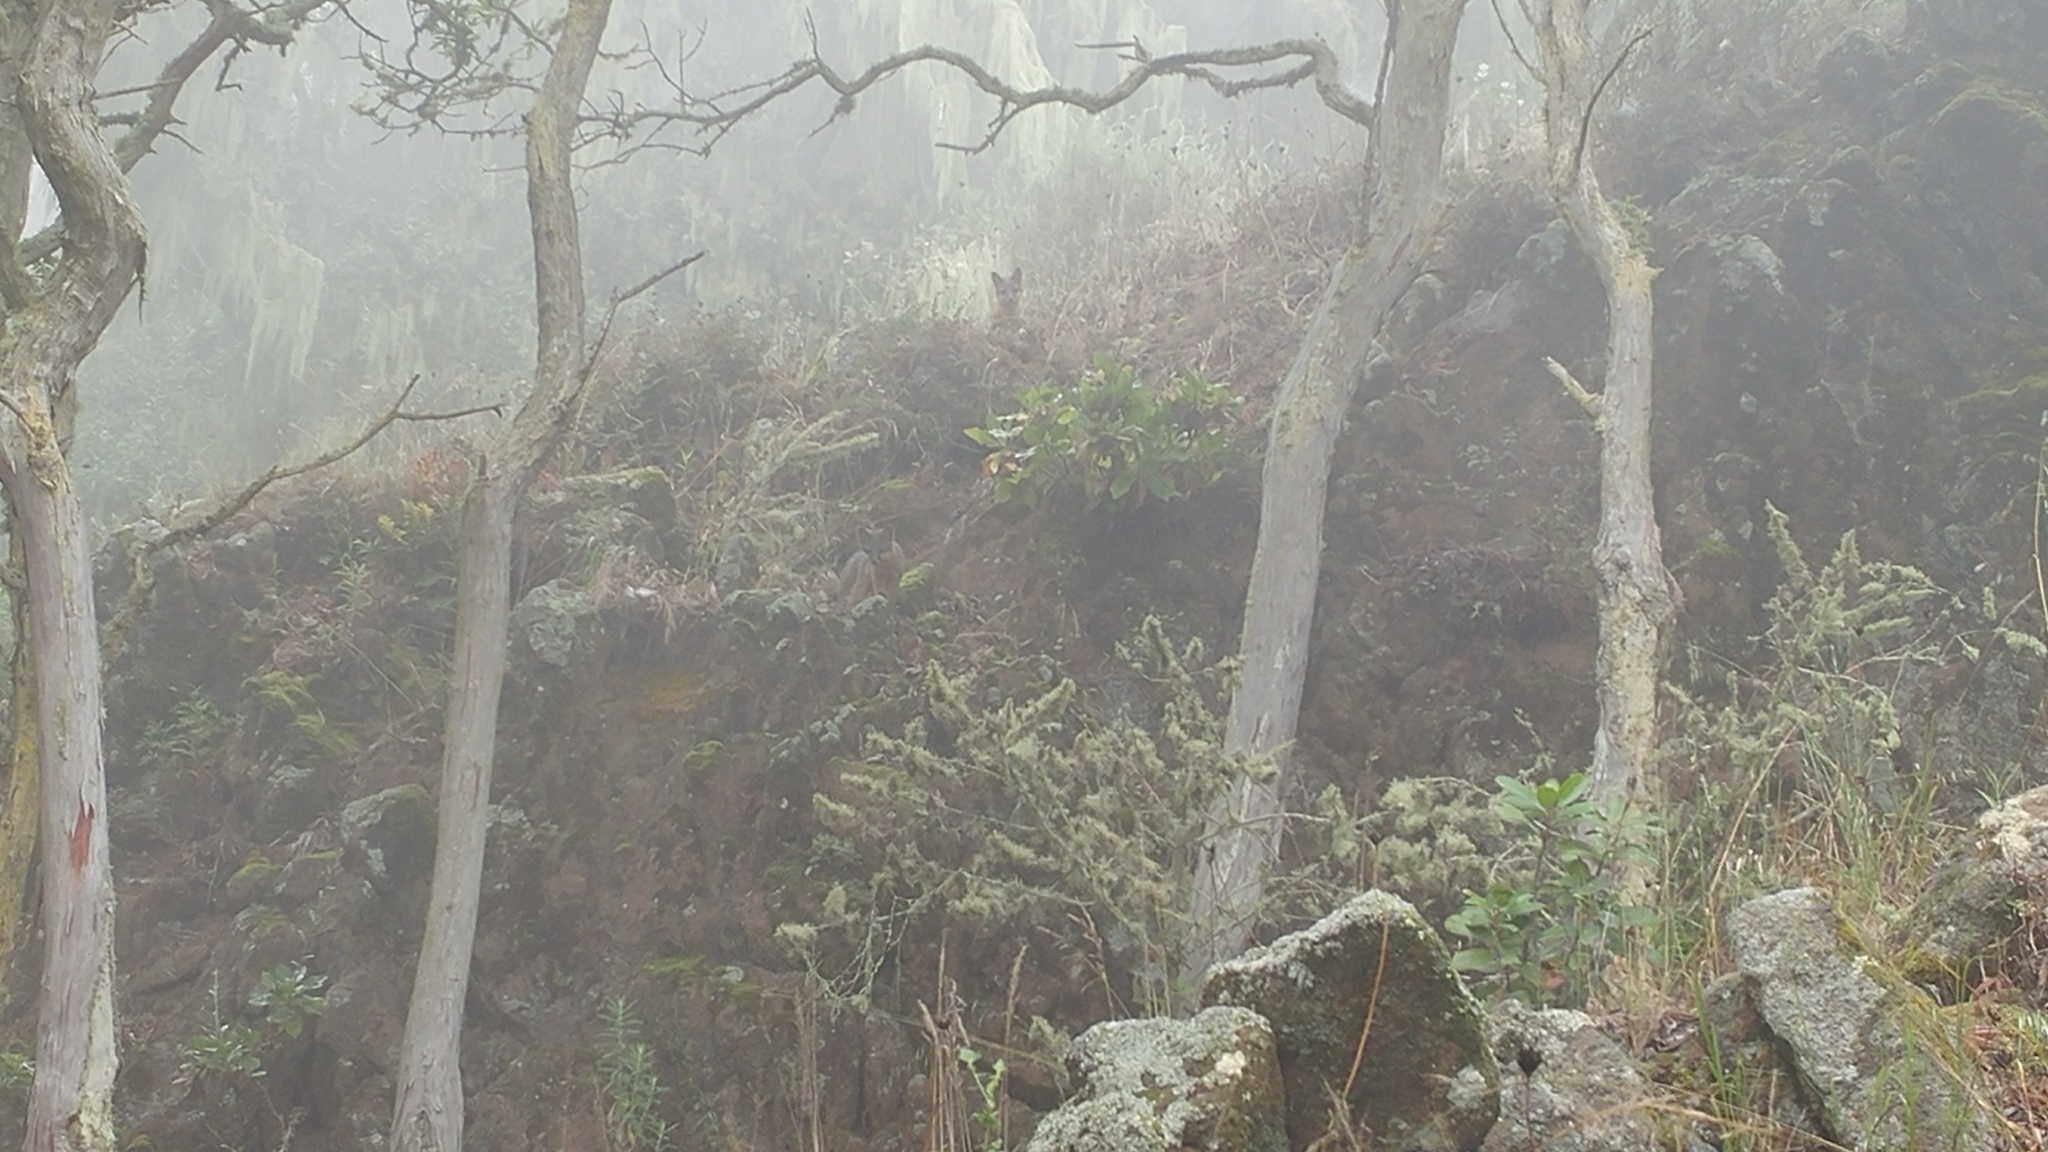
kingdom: Animalia
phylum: Chordata
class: Mammalia
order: Carnivora
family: Canidae
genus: Urocyon
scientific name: Urocyon littoralis
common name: Island gray fox
